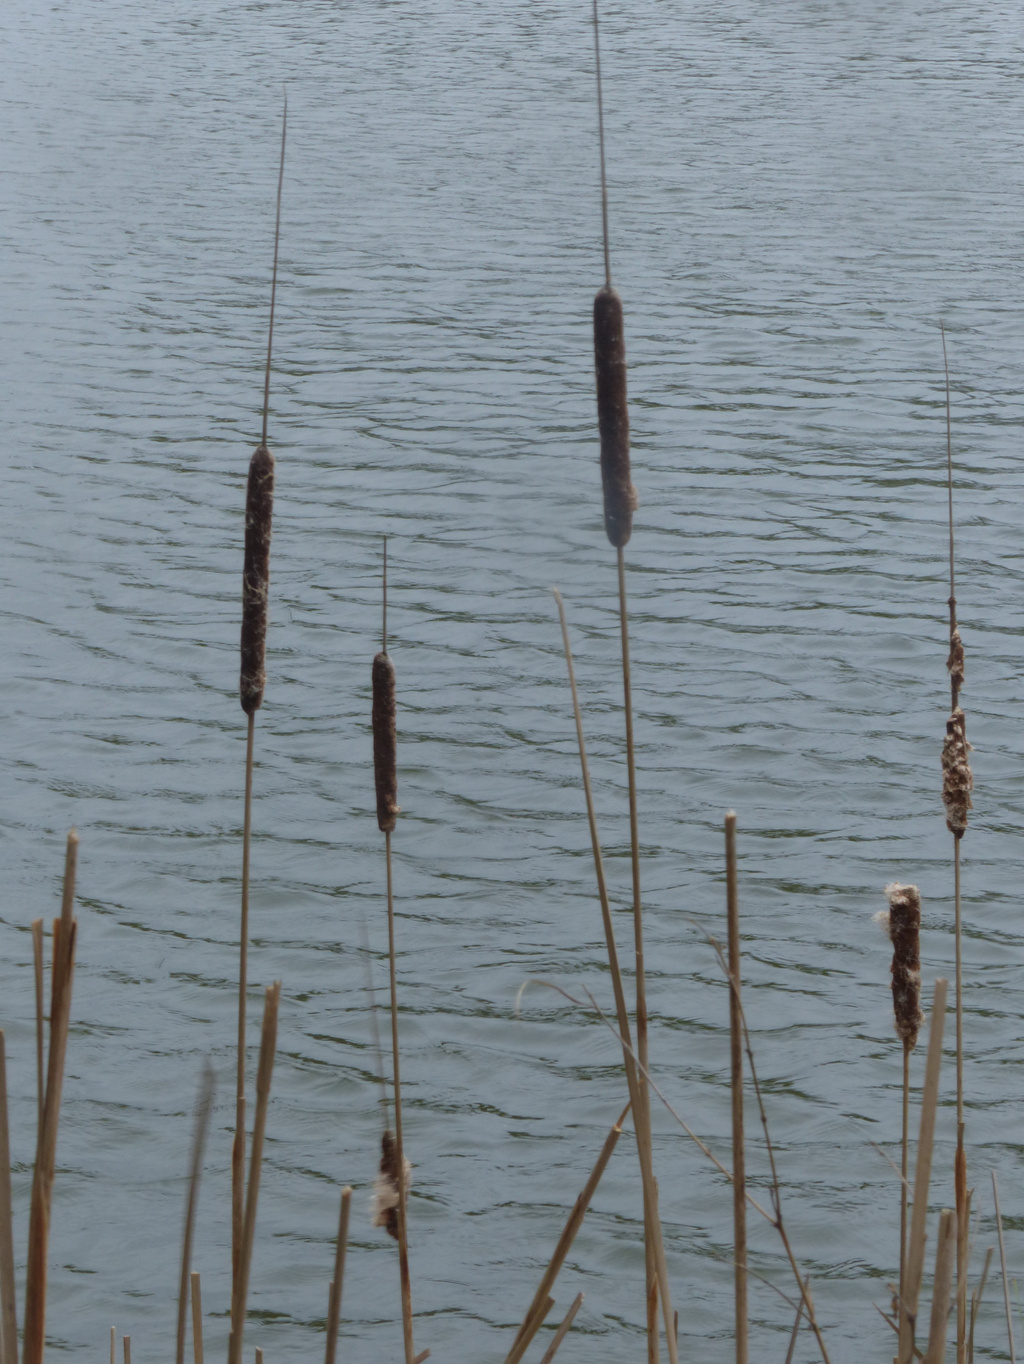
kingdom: Plantae
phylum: Tracheophyta
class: Liliopsida
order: Poales
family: Typhaceae
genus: Typha
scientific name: Typha angustifolia
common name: Lesser bulrush
